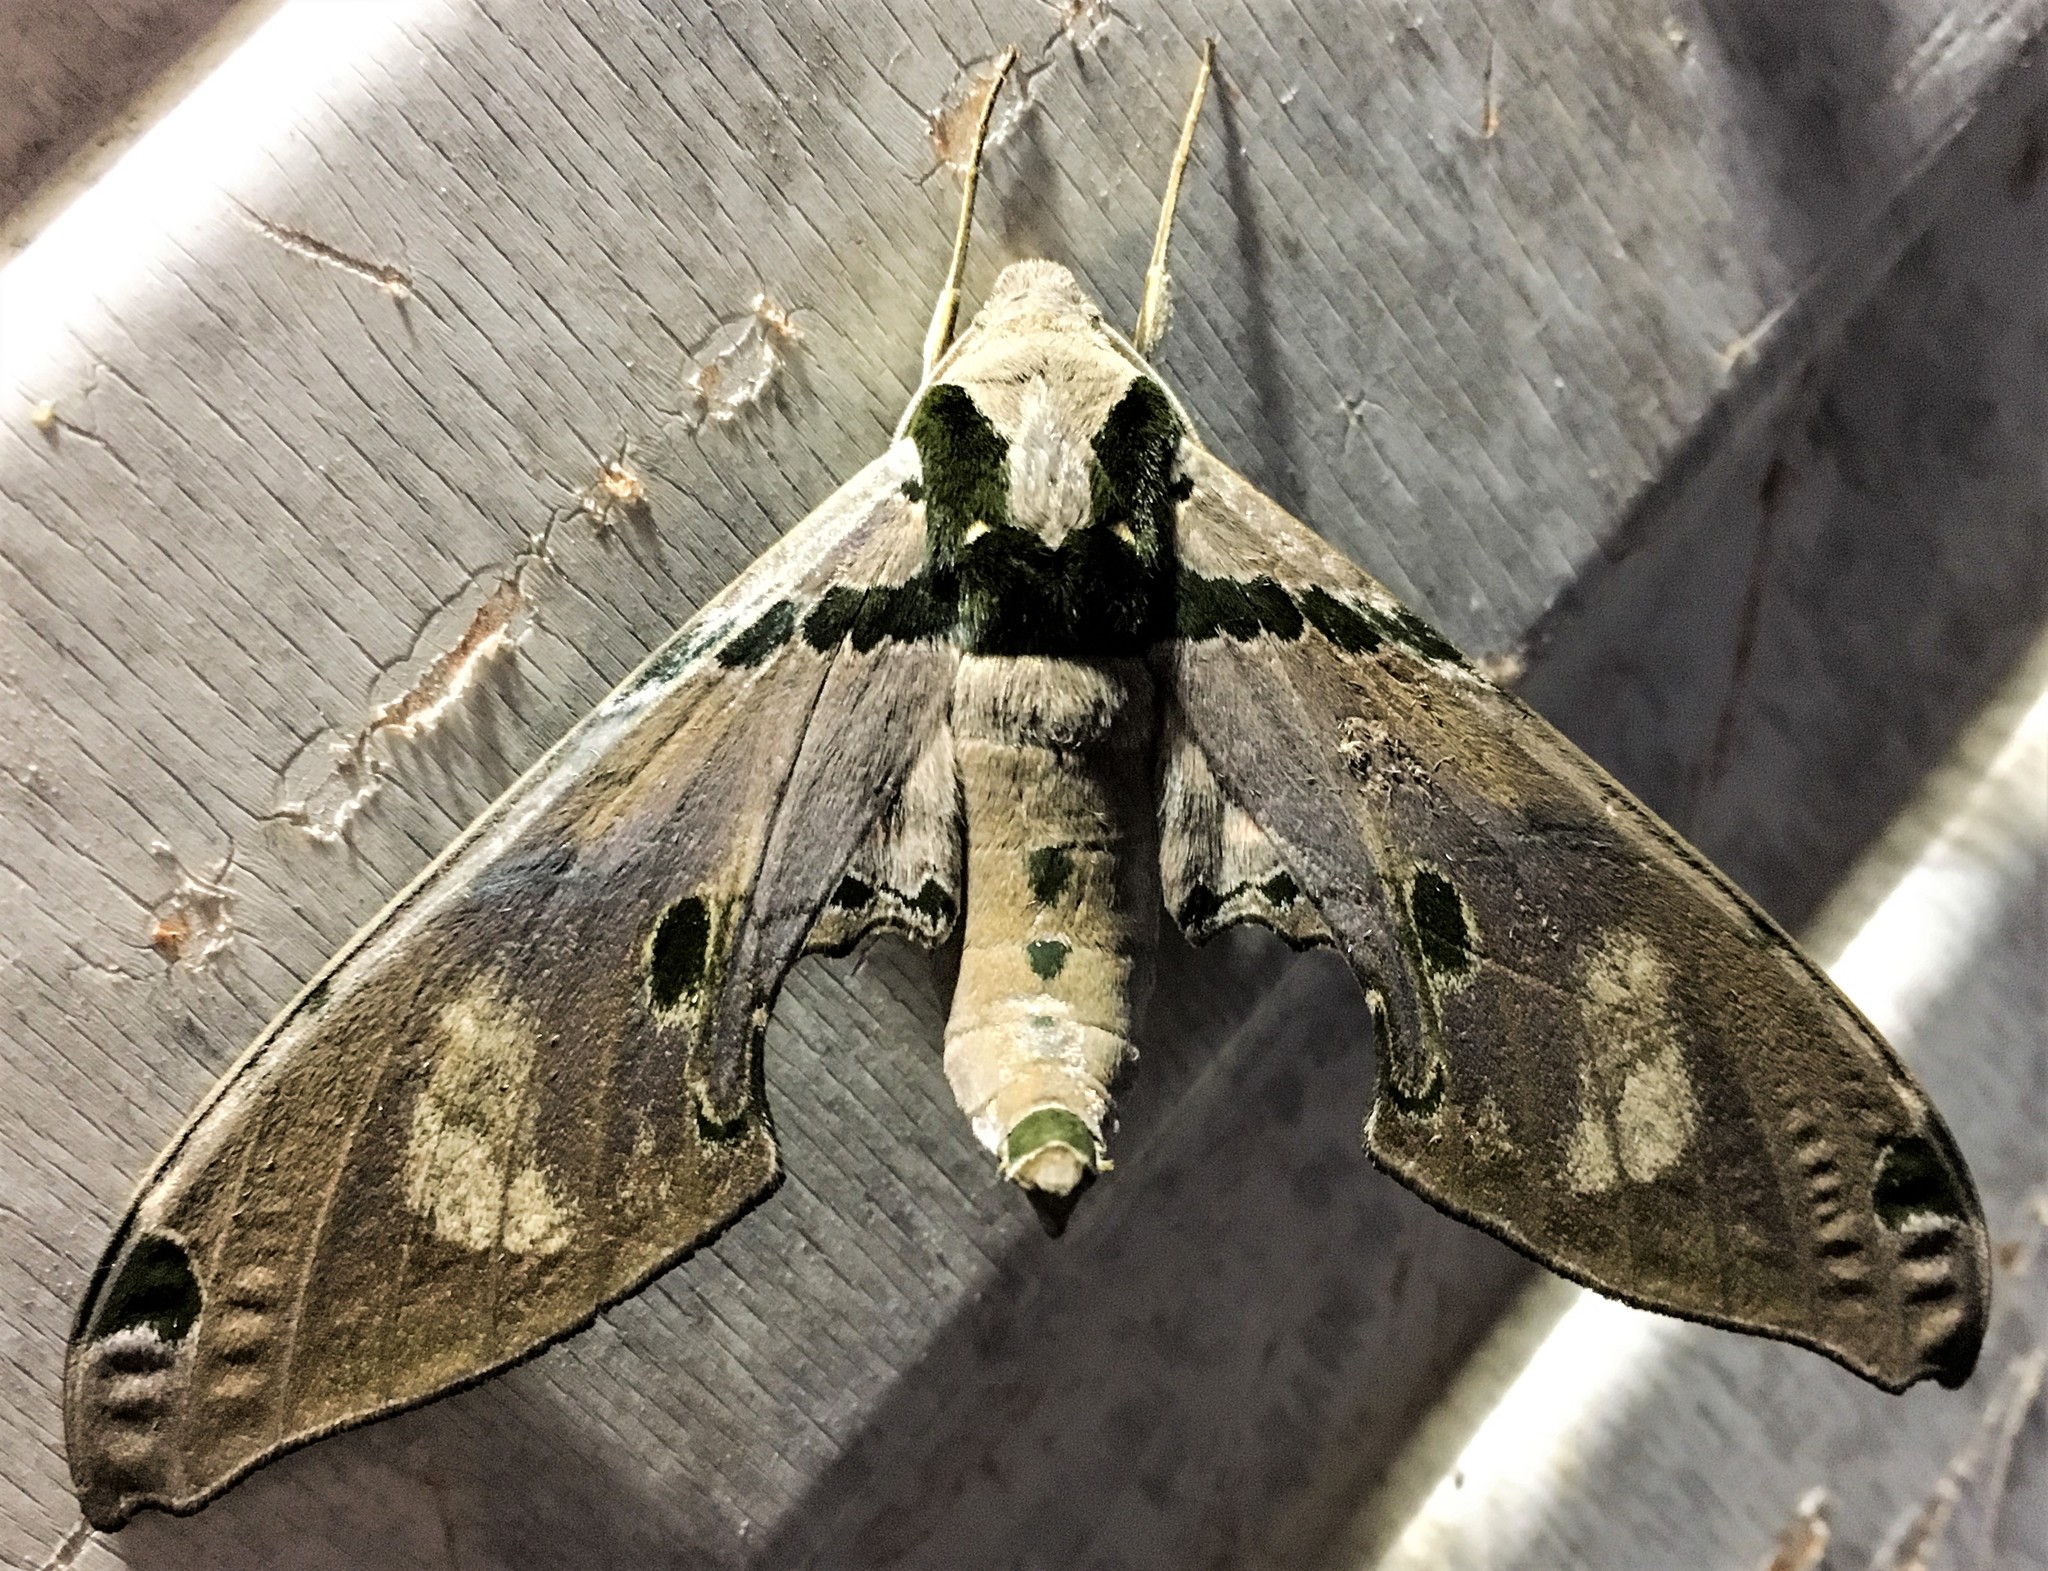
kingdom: Animalia
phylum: Arthropoda
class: Insecta
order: Lepidoptera
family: Sphingidae
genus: Adhemarius
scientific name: Adhemarius gagarini
